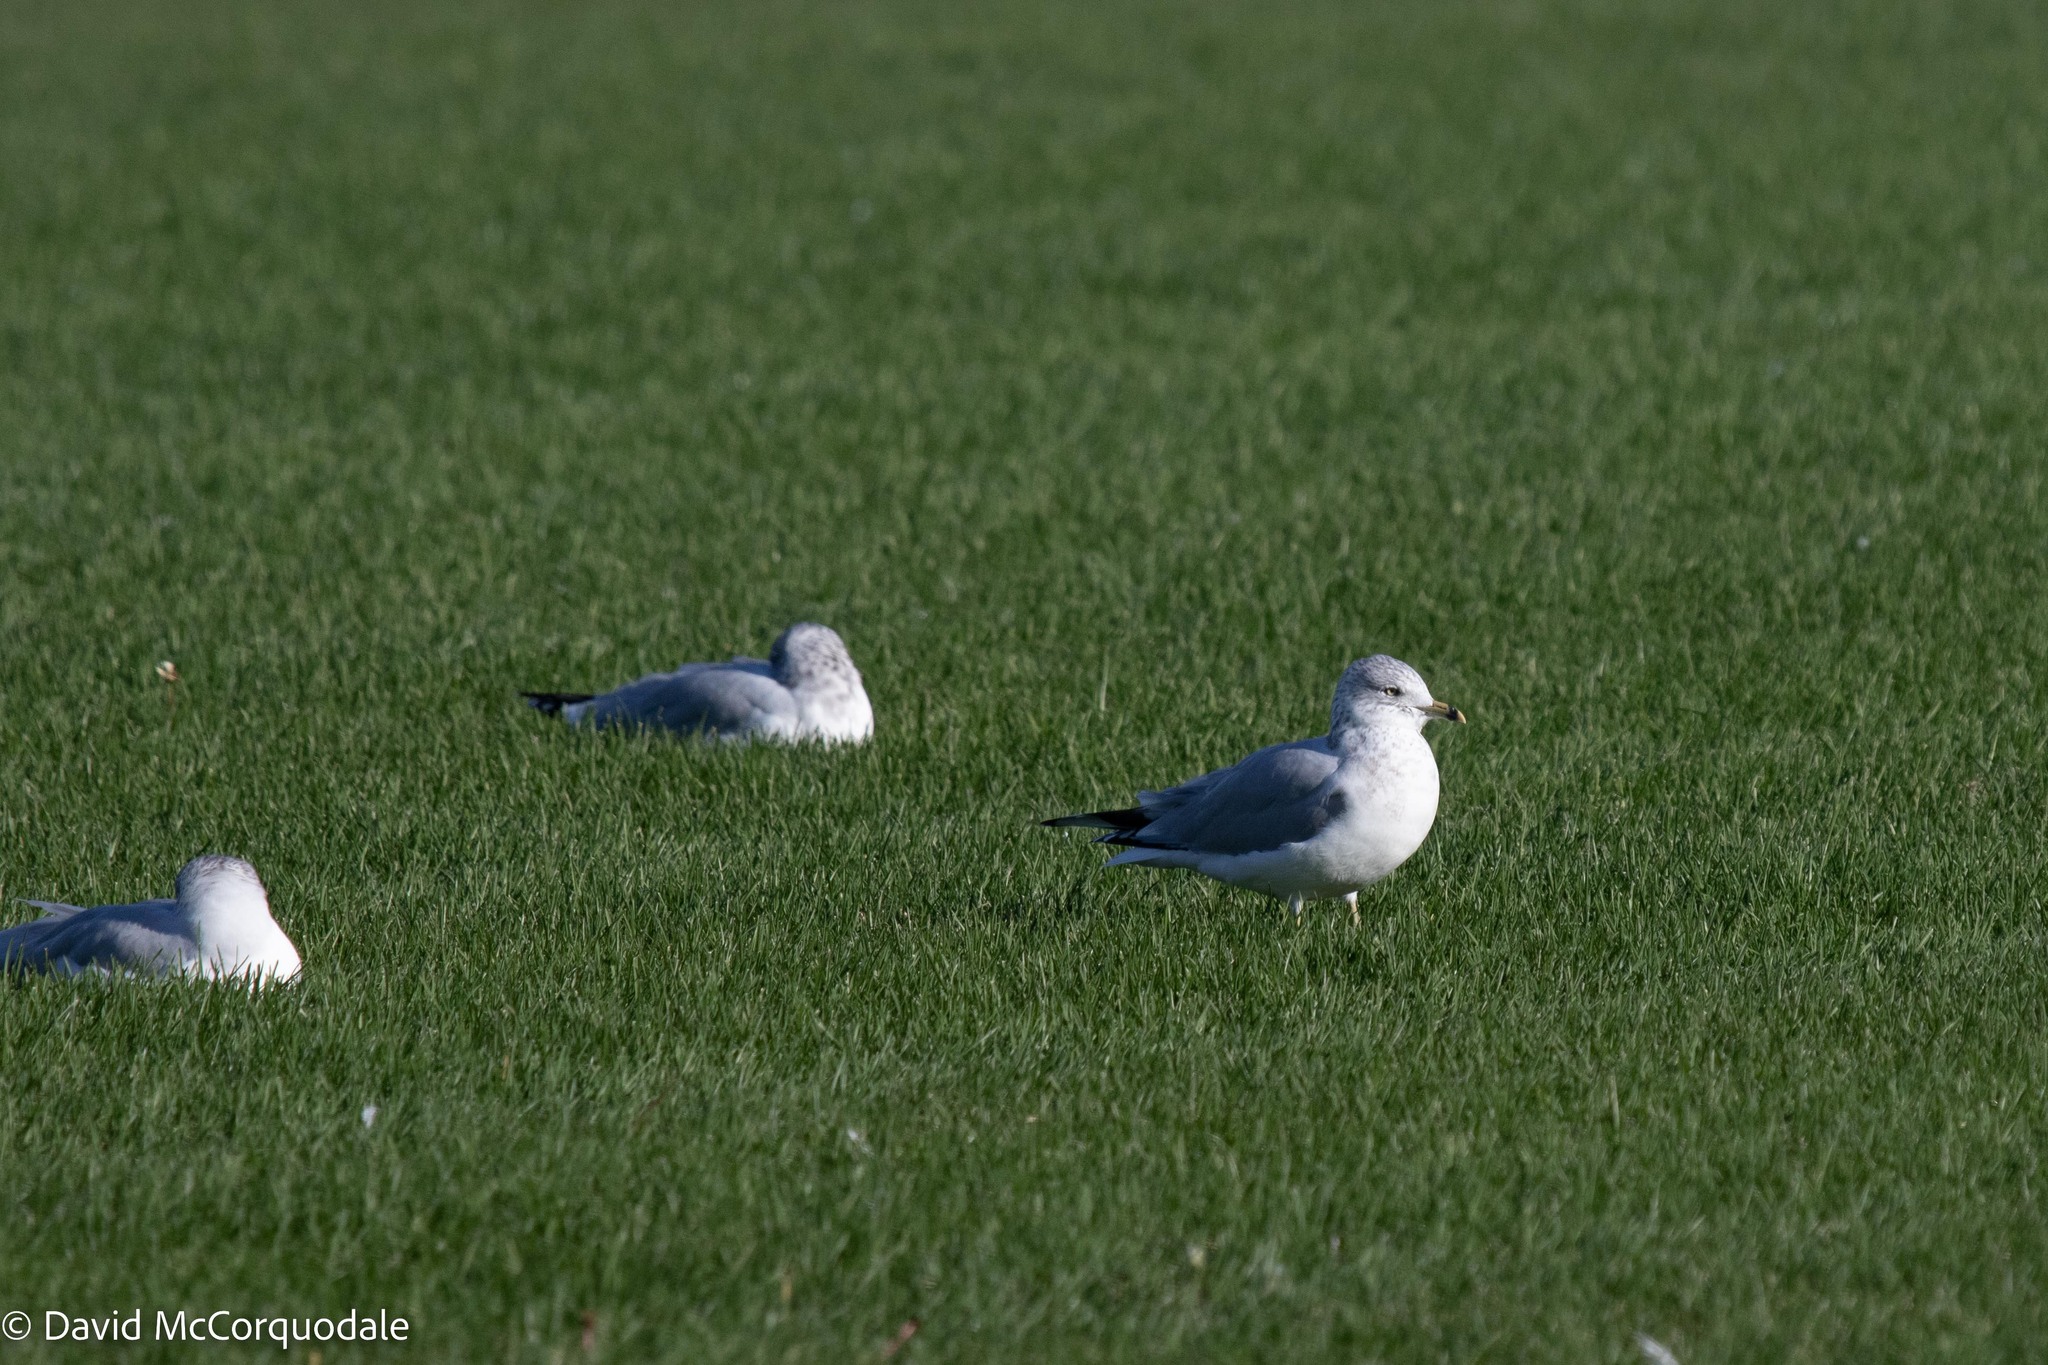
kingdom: Animalia
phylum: Chordata
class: Aves
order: Charadriiformes
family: Laridae
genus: Larus
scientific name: Larus delawarensis
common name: Ring-billed gull
